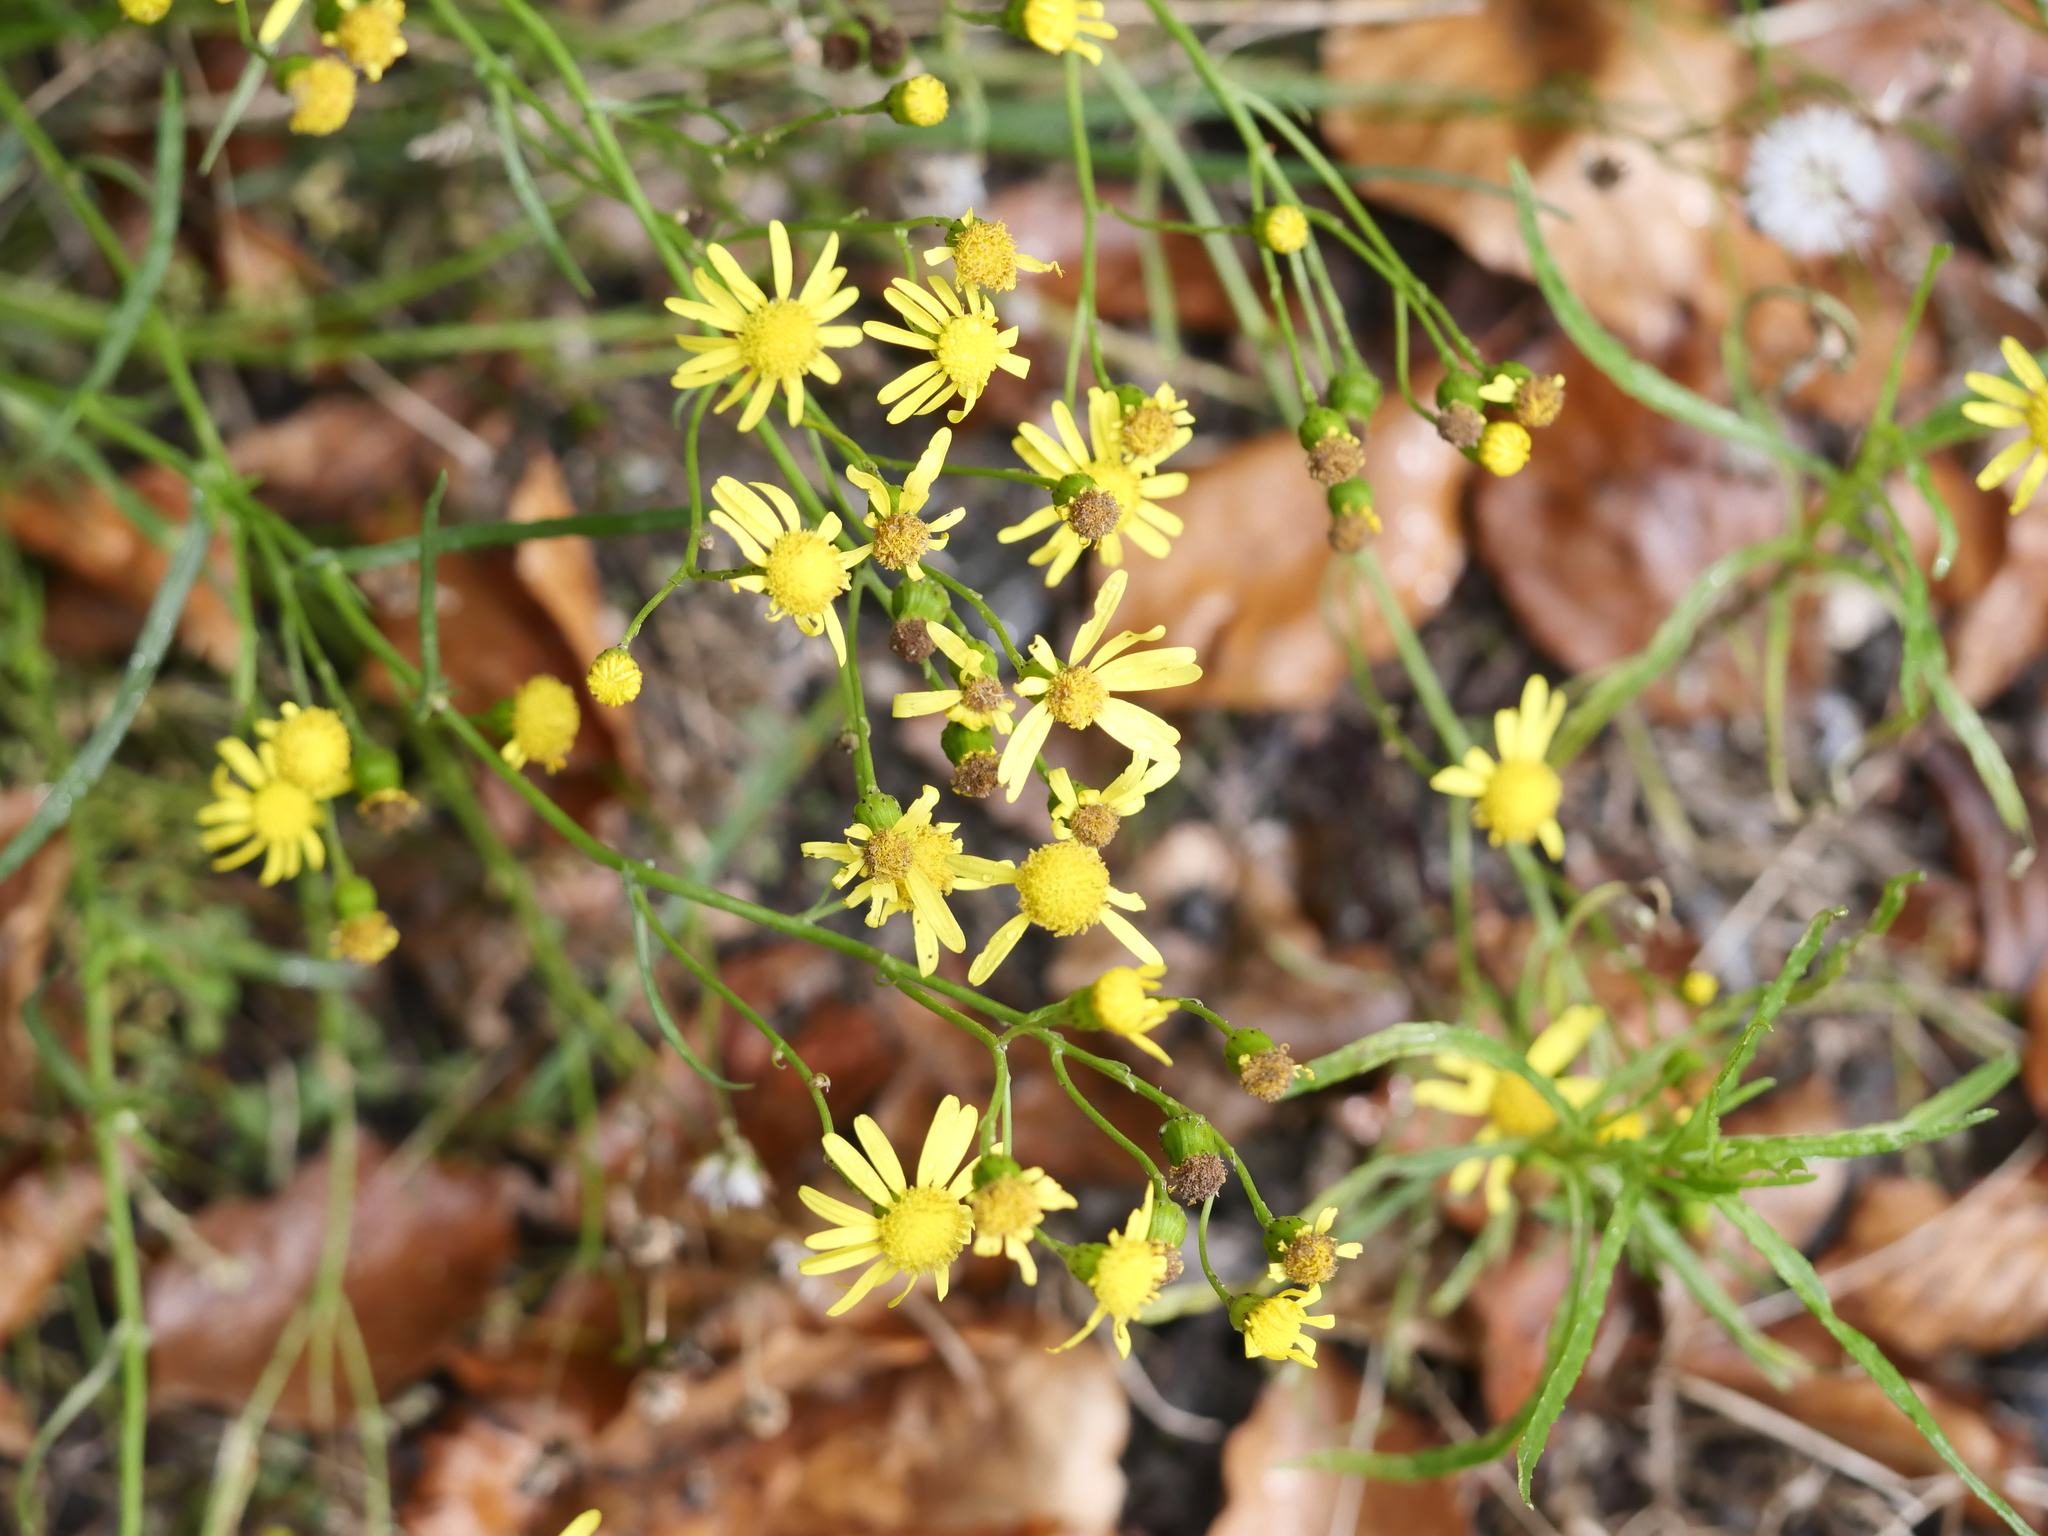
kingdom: Plantae
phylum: Tracheophyta
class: Magnoliopsida
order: Asterales
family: Asteraceae
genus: Senecio
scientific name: Senecio inaequidens
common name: Narrow-leaved ragwort
